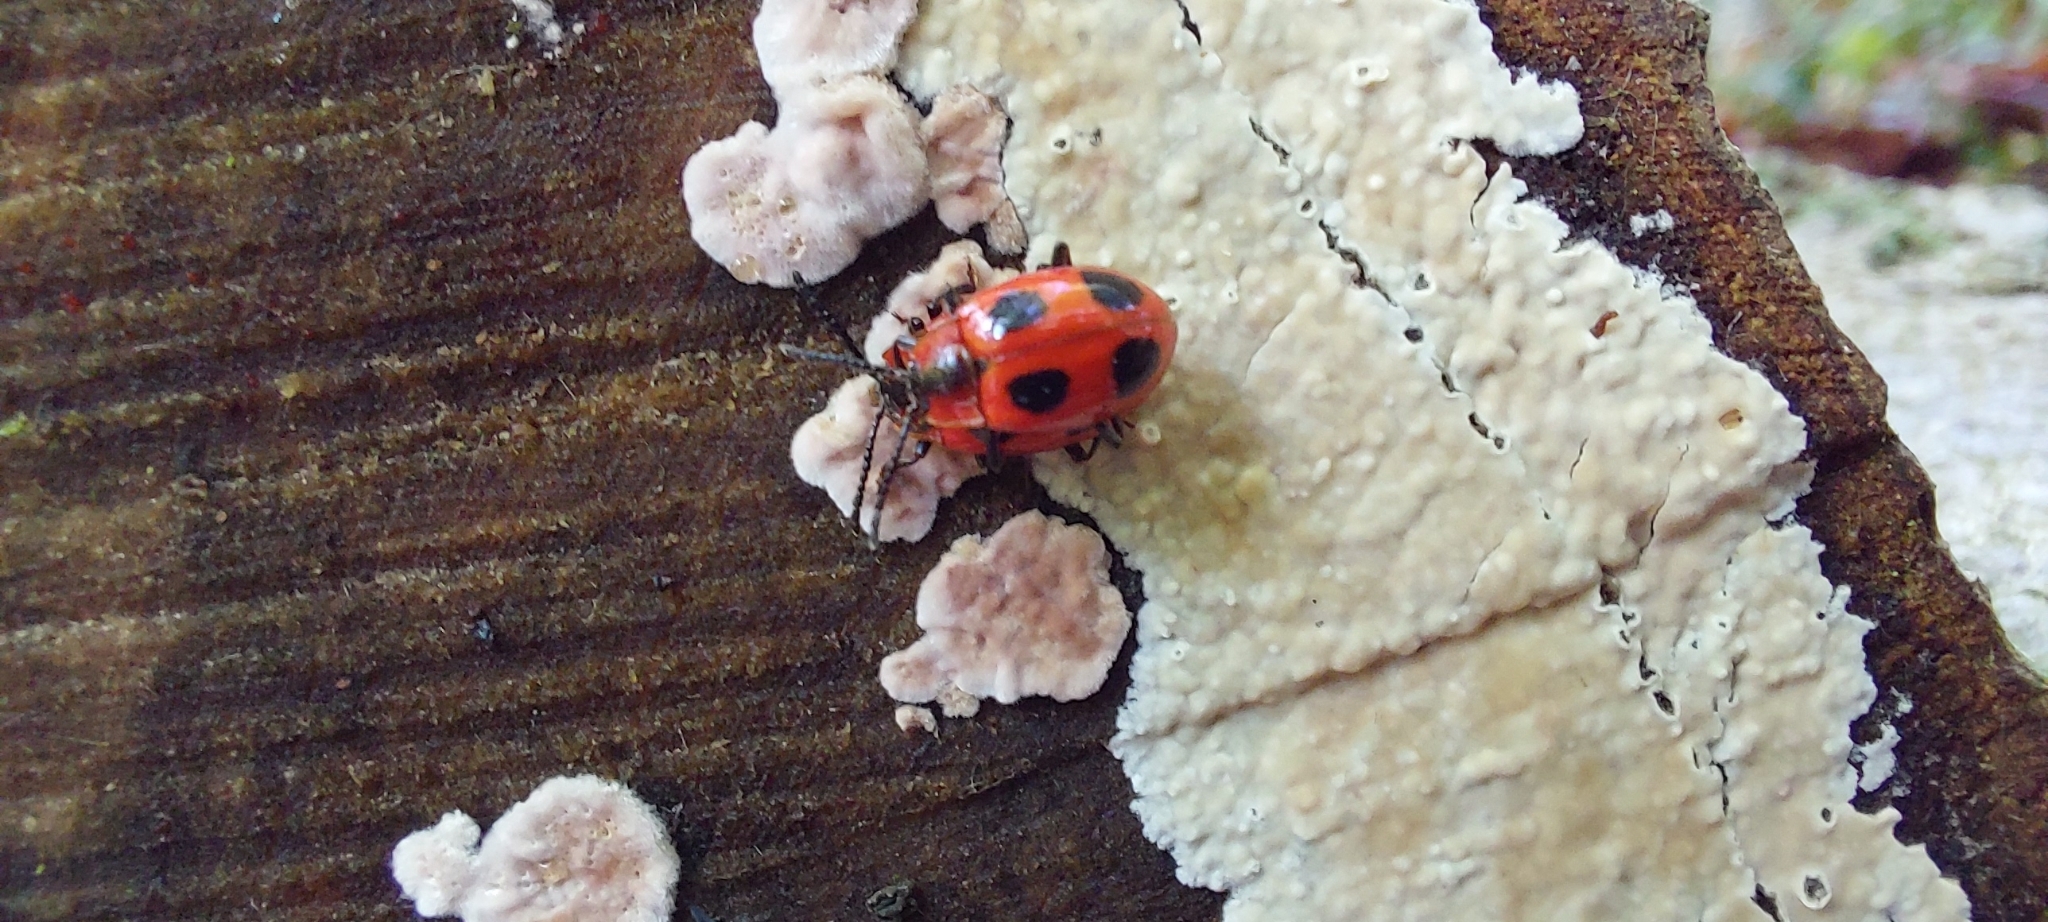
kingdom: Animalia
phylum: Arthropoda
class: Insecta
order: Coleoptera
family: Endomychidae
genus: Endomychus
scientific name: Endomychus coccineus
